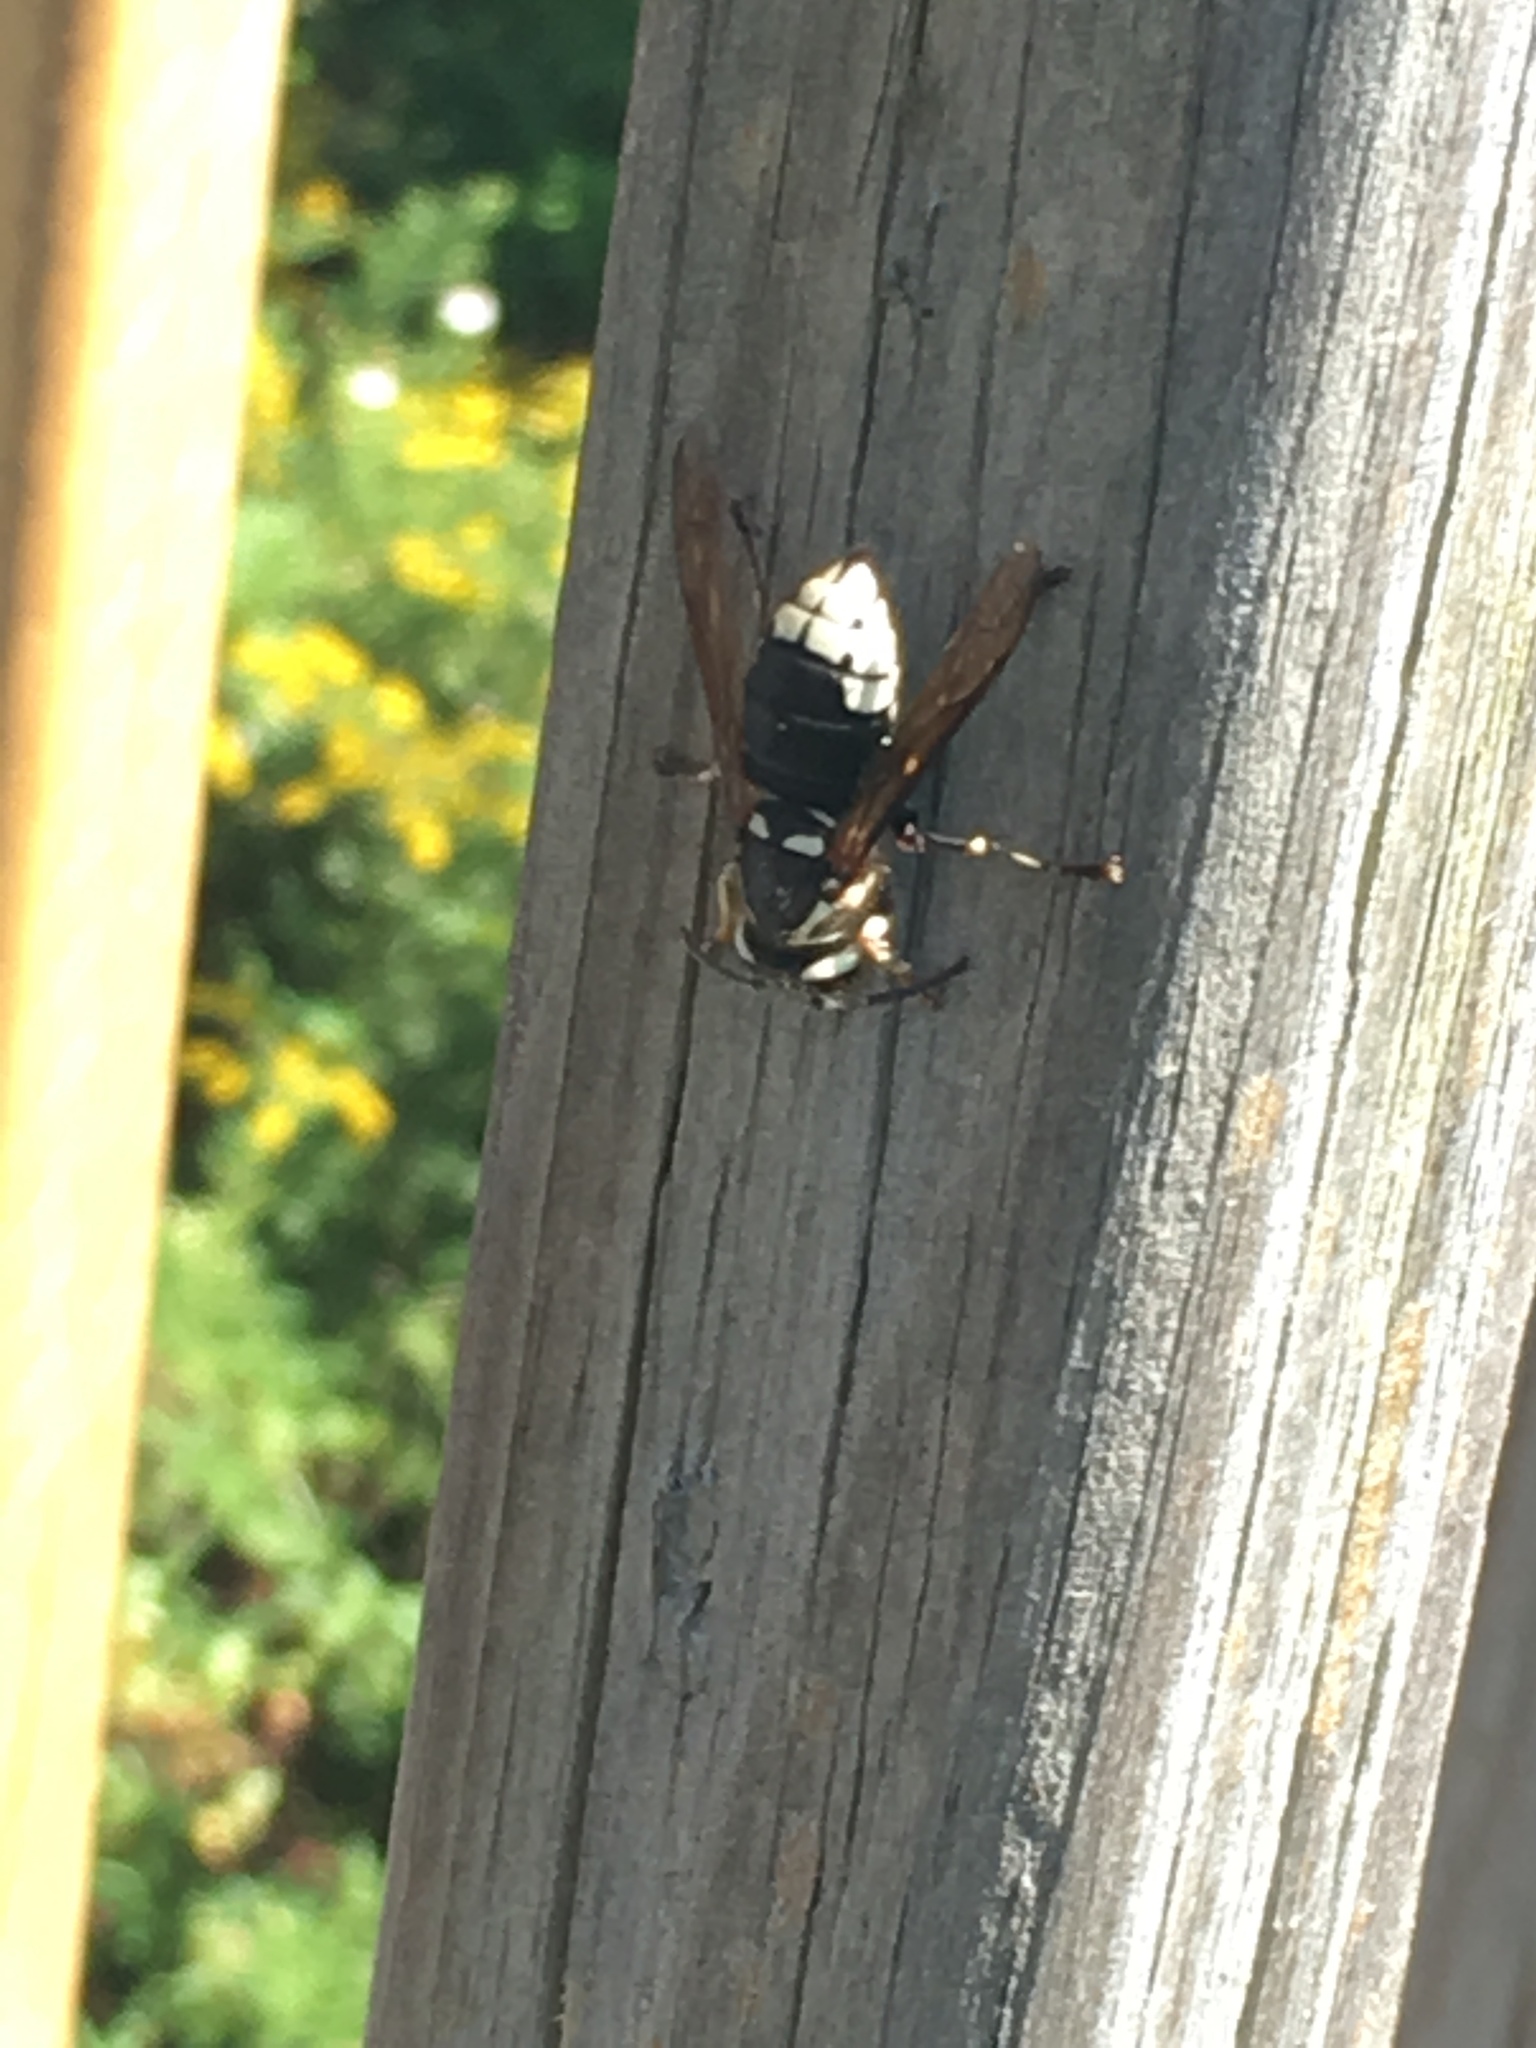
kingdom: Animalia
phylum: Arthropoda
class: Insecta
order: Hymenoptera
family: Vespidae
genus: Dolichovespula
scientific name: Dolichovespula maculata
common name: Bald-faced hornet
